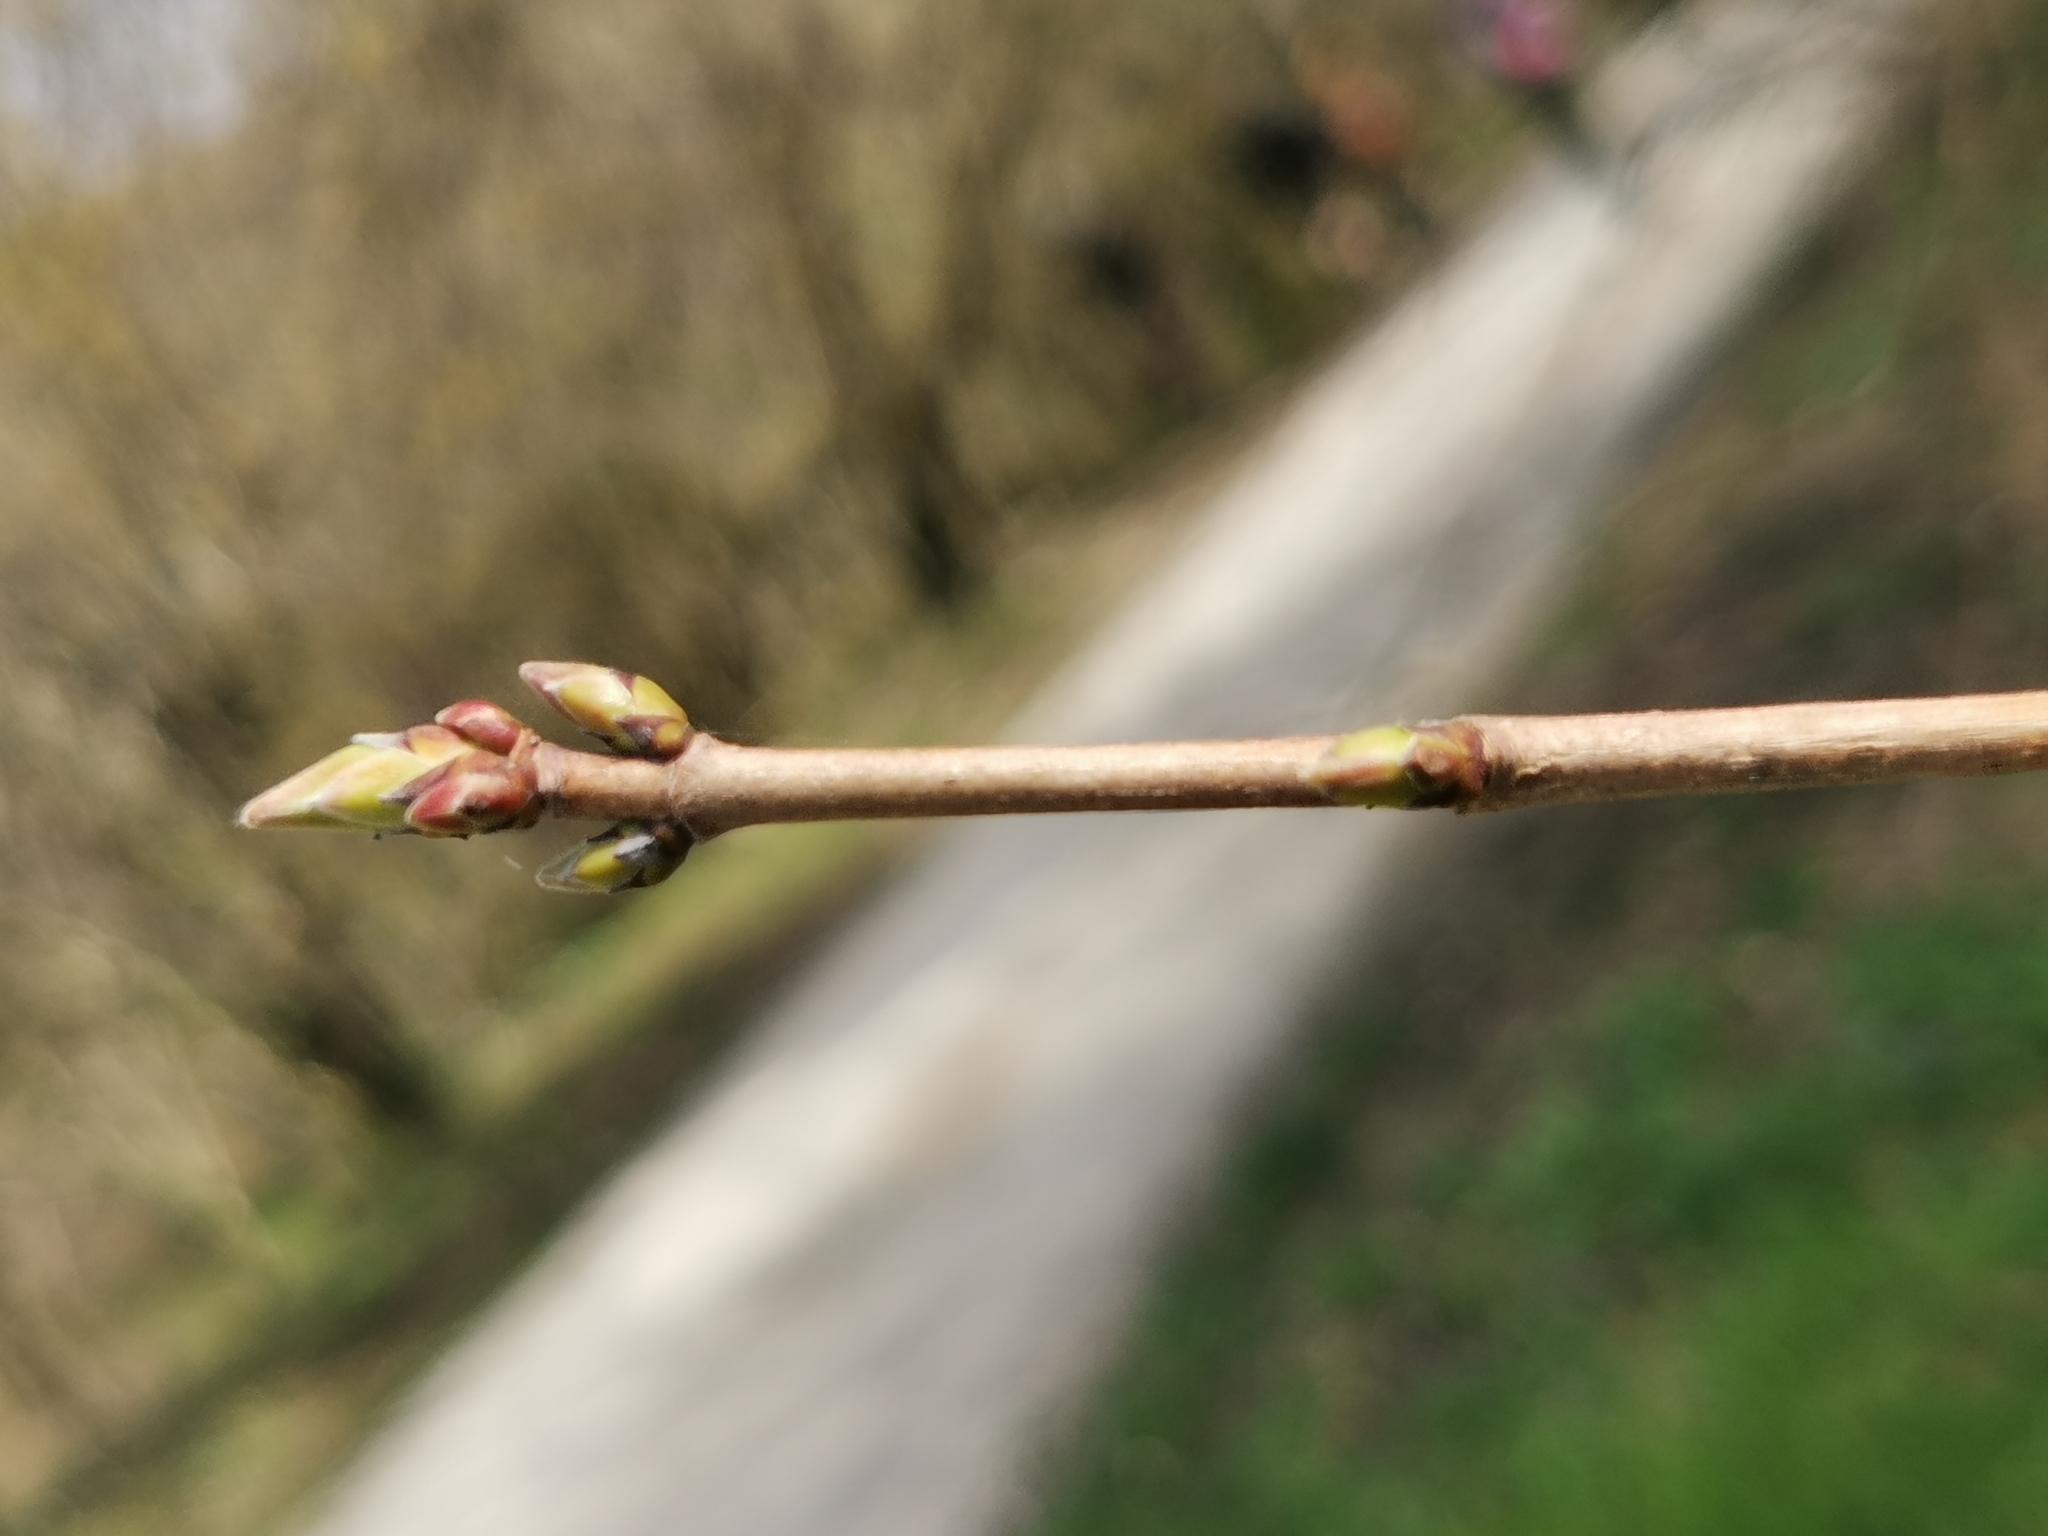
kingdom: Plantae
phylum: Tracheophyta
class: Magnoliopsida
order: Sapindales
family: Sapindaceae
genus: Acer
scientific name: Acer campestre
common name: Field maple
